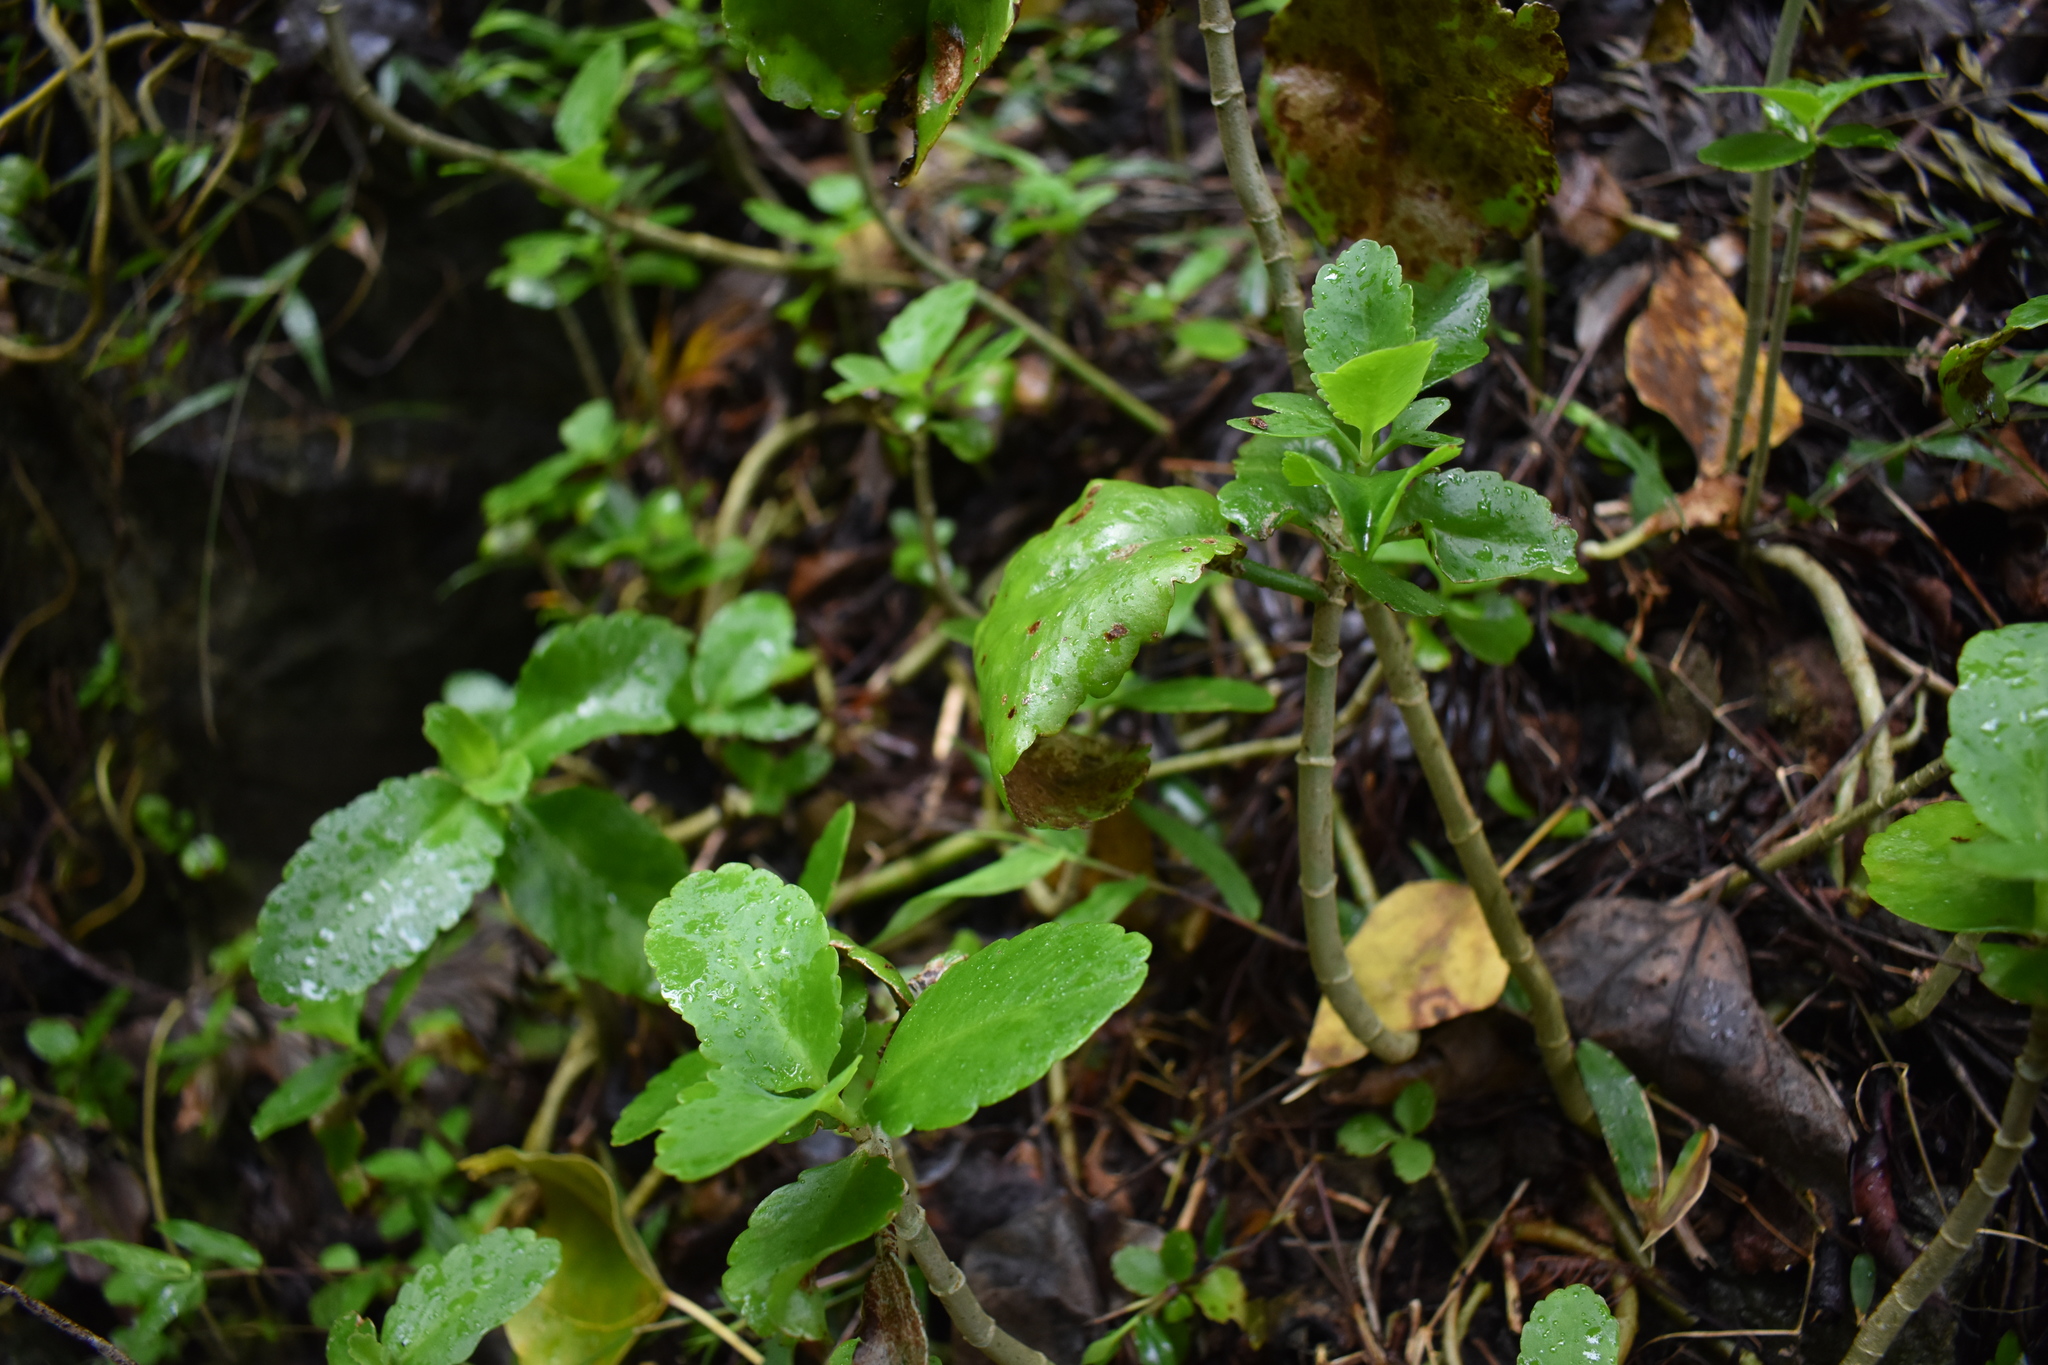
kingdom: Plantae
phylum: Tracheophyta
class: Magnoliopsida
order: Saxifragales
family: Crassulaceae
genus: Kalanchoe
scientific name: Kalanchoe pinnata
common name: Cathedral bells
